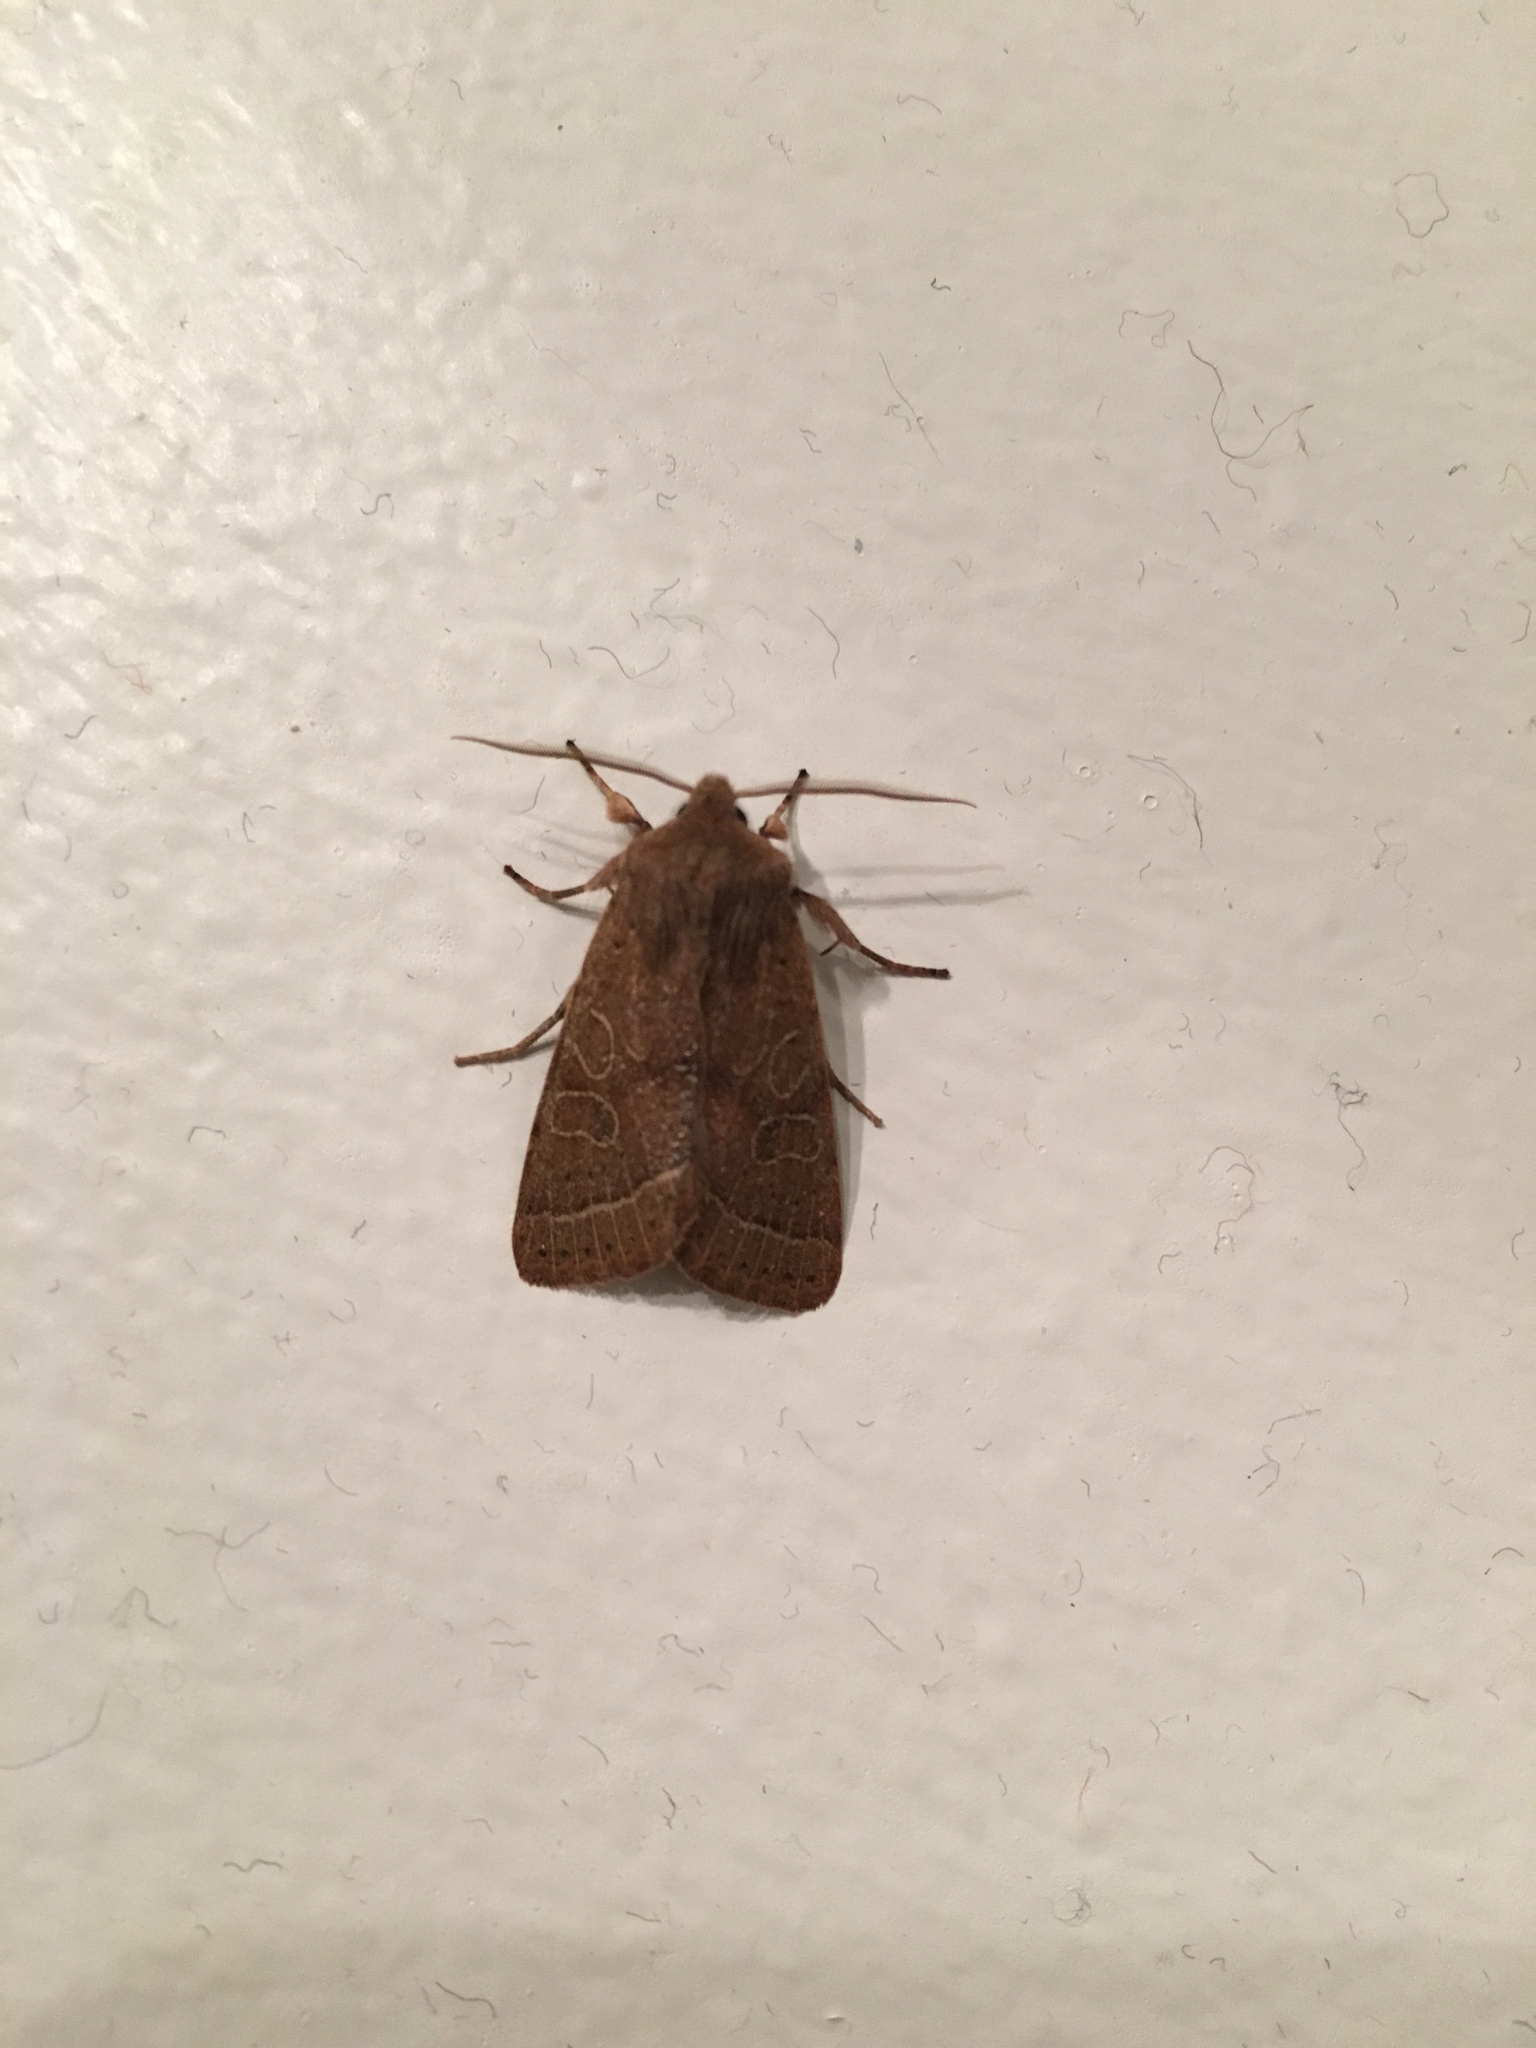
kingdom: Animalia
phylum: Arthropoda
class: Insecta
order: Lepidoptera
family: Noctuidae
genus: Orthosia
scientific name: Orthosia cerasi
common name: Common quaker
